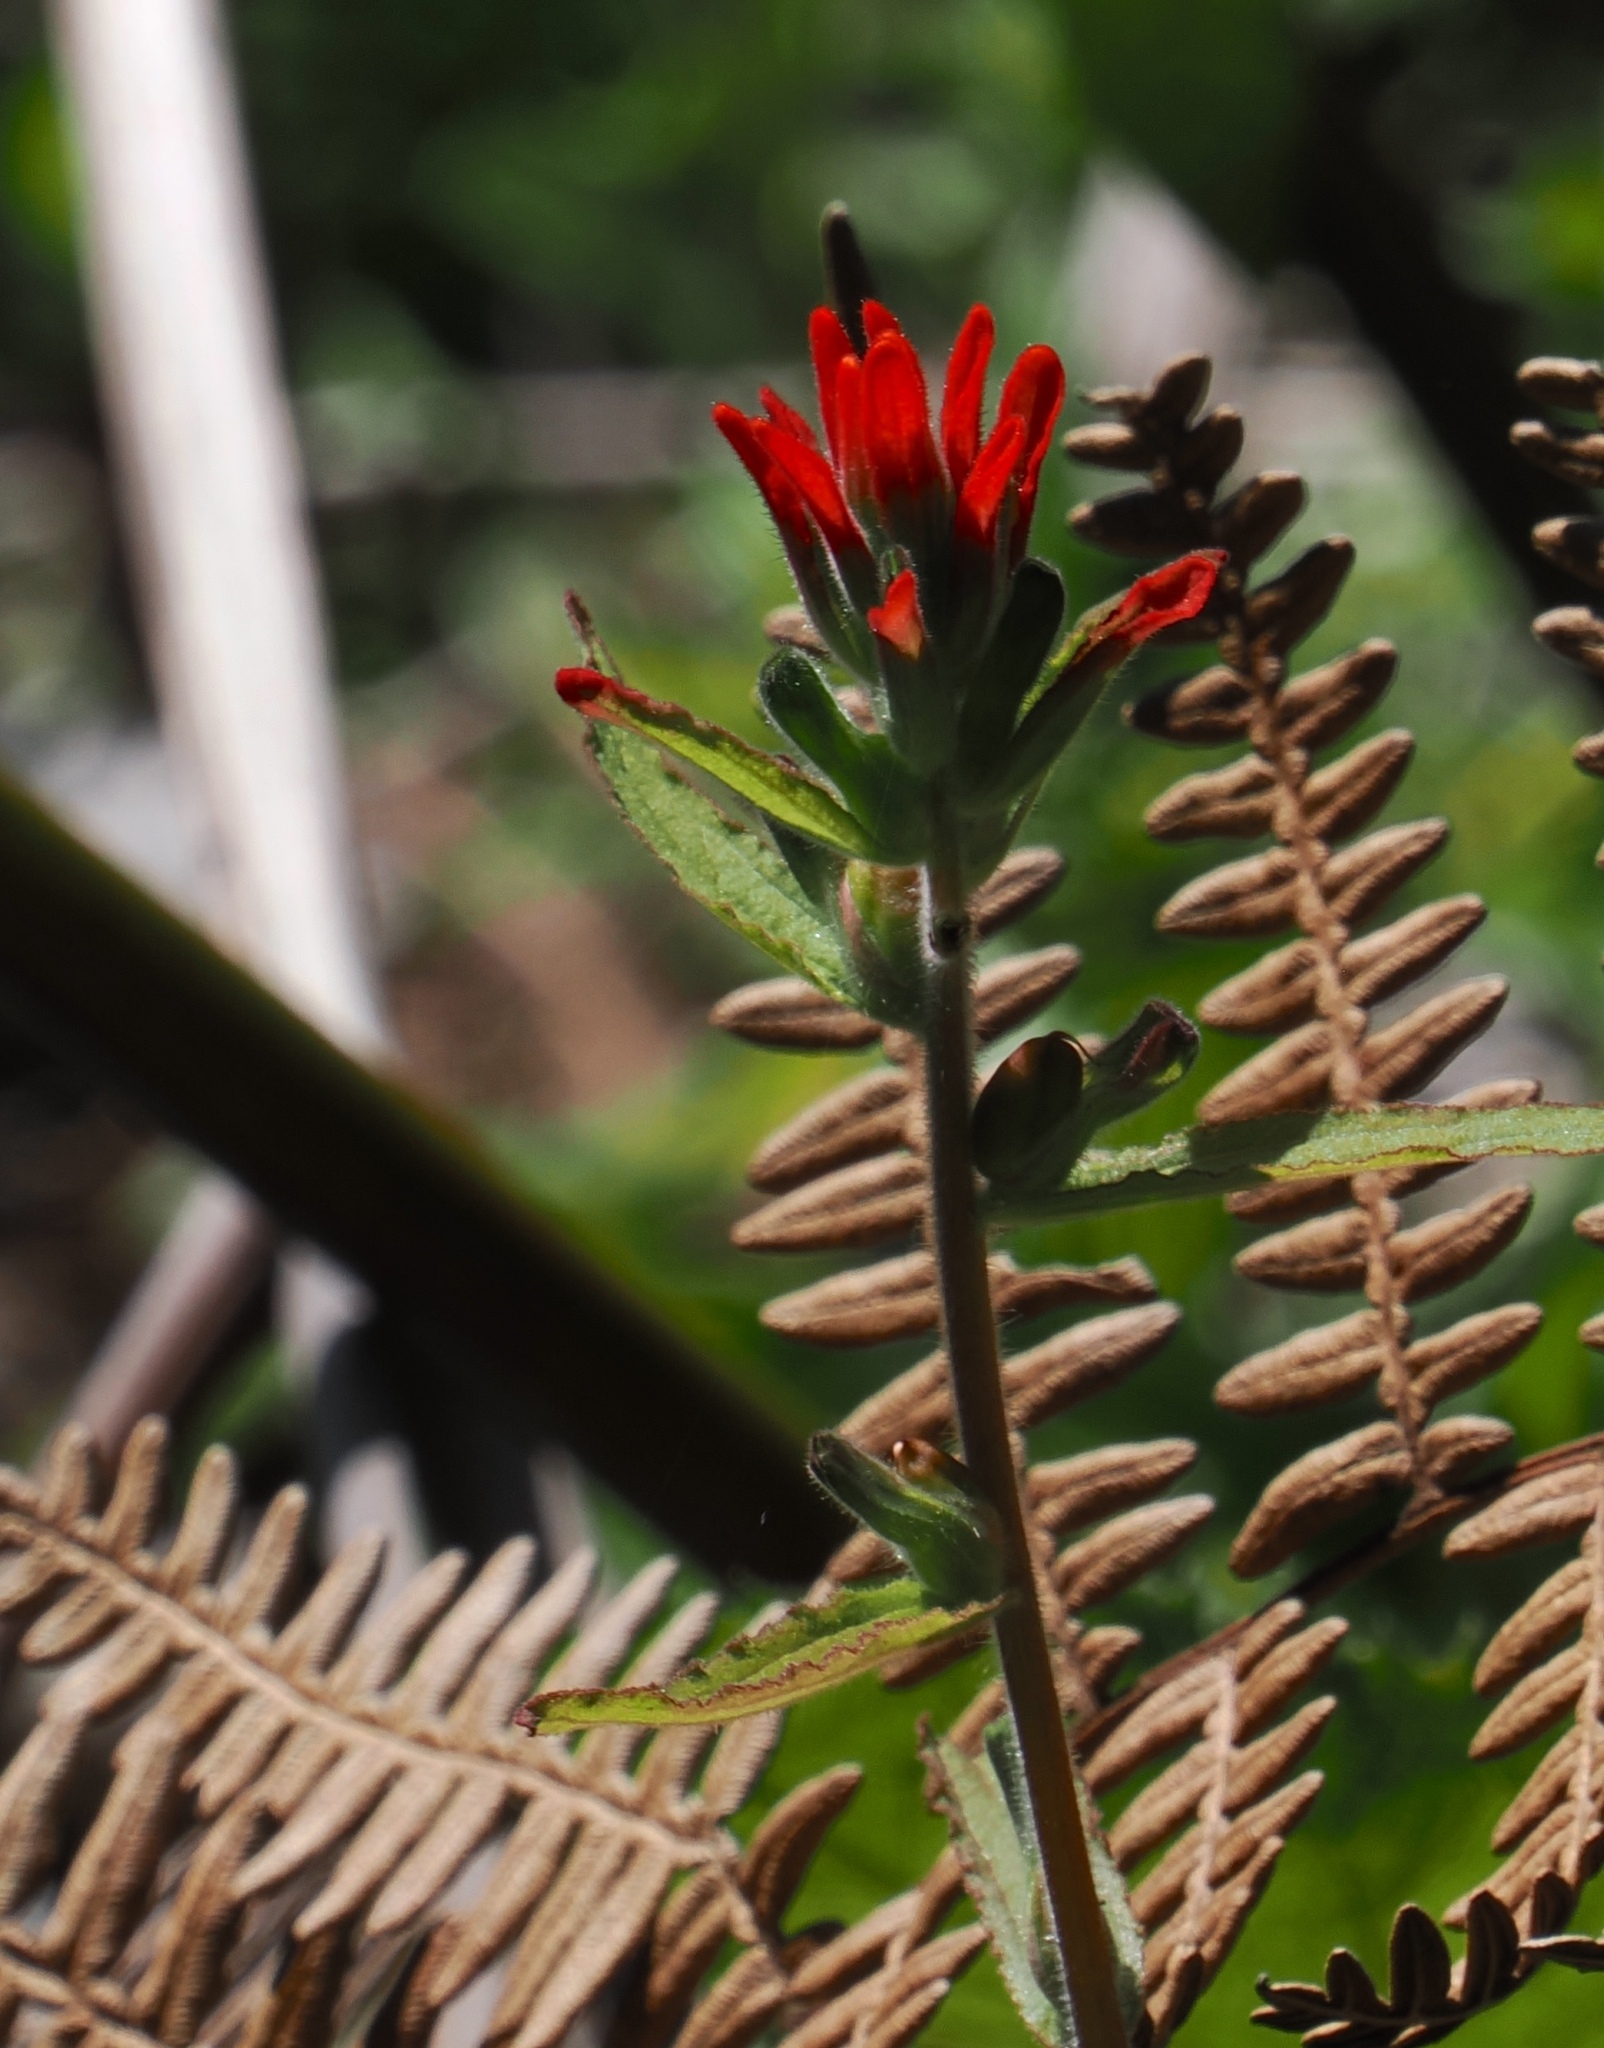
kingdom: Plantae
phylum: Tracheophyta
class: Magnoliopsida
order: Lamiales
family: Orobanchaceae
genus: Castilleja
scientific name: Castilleja arvensis
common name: Indian paintbrush
